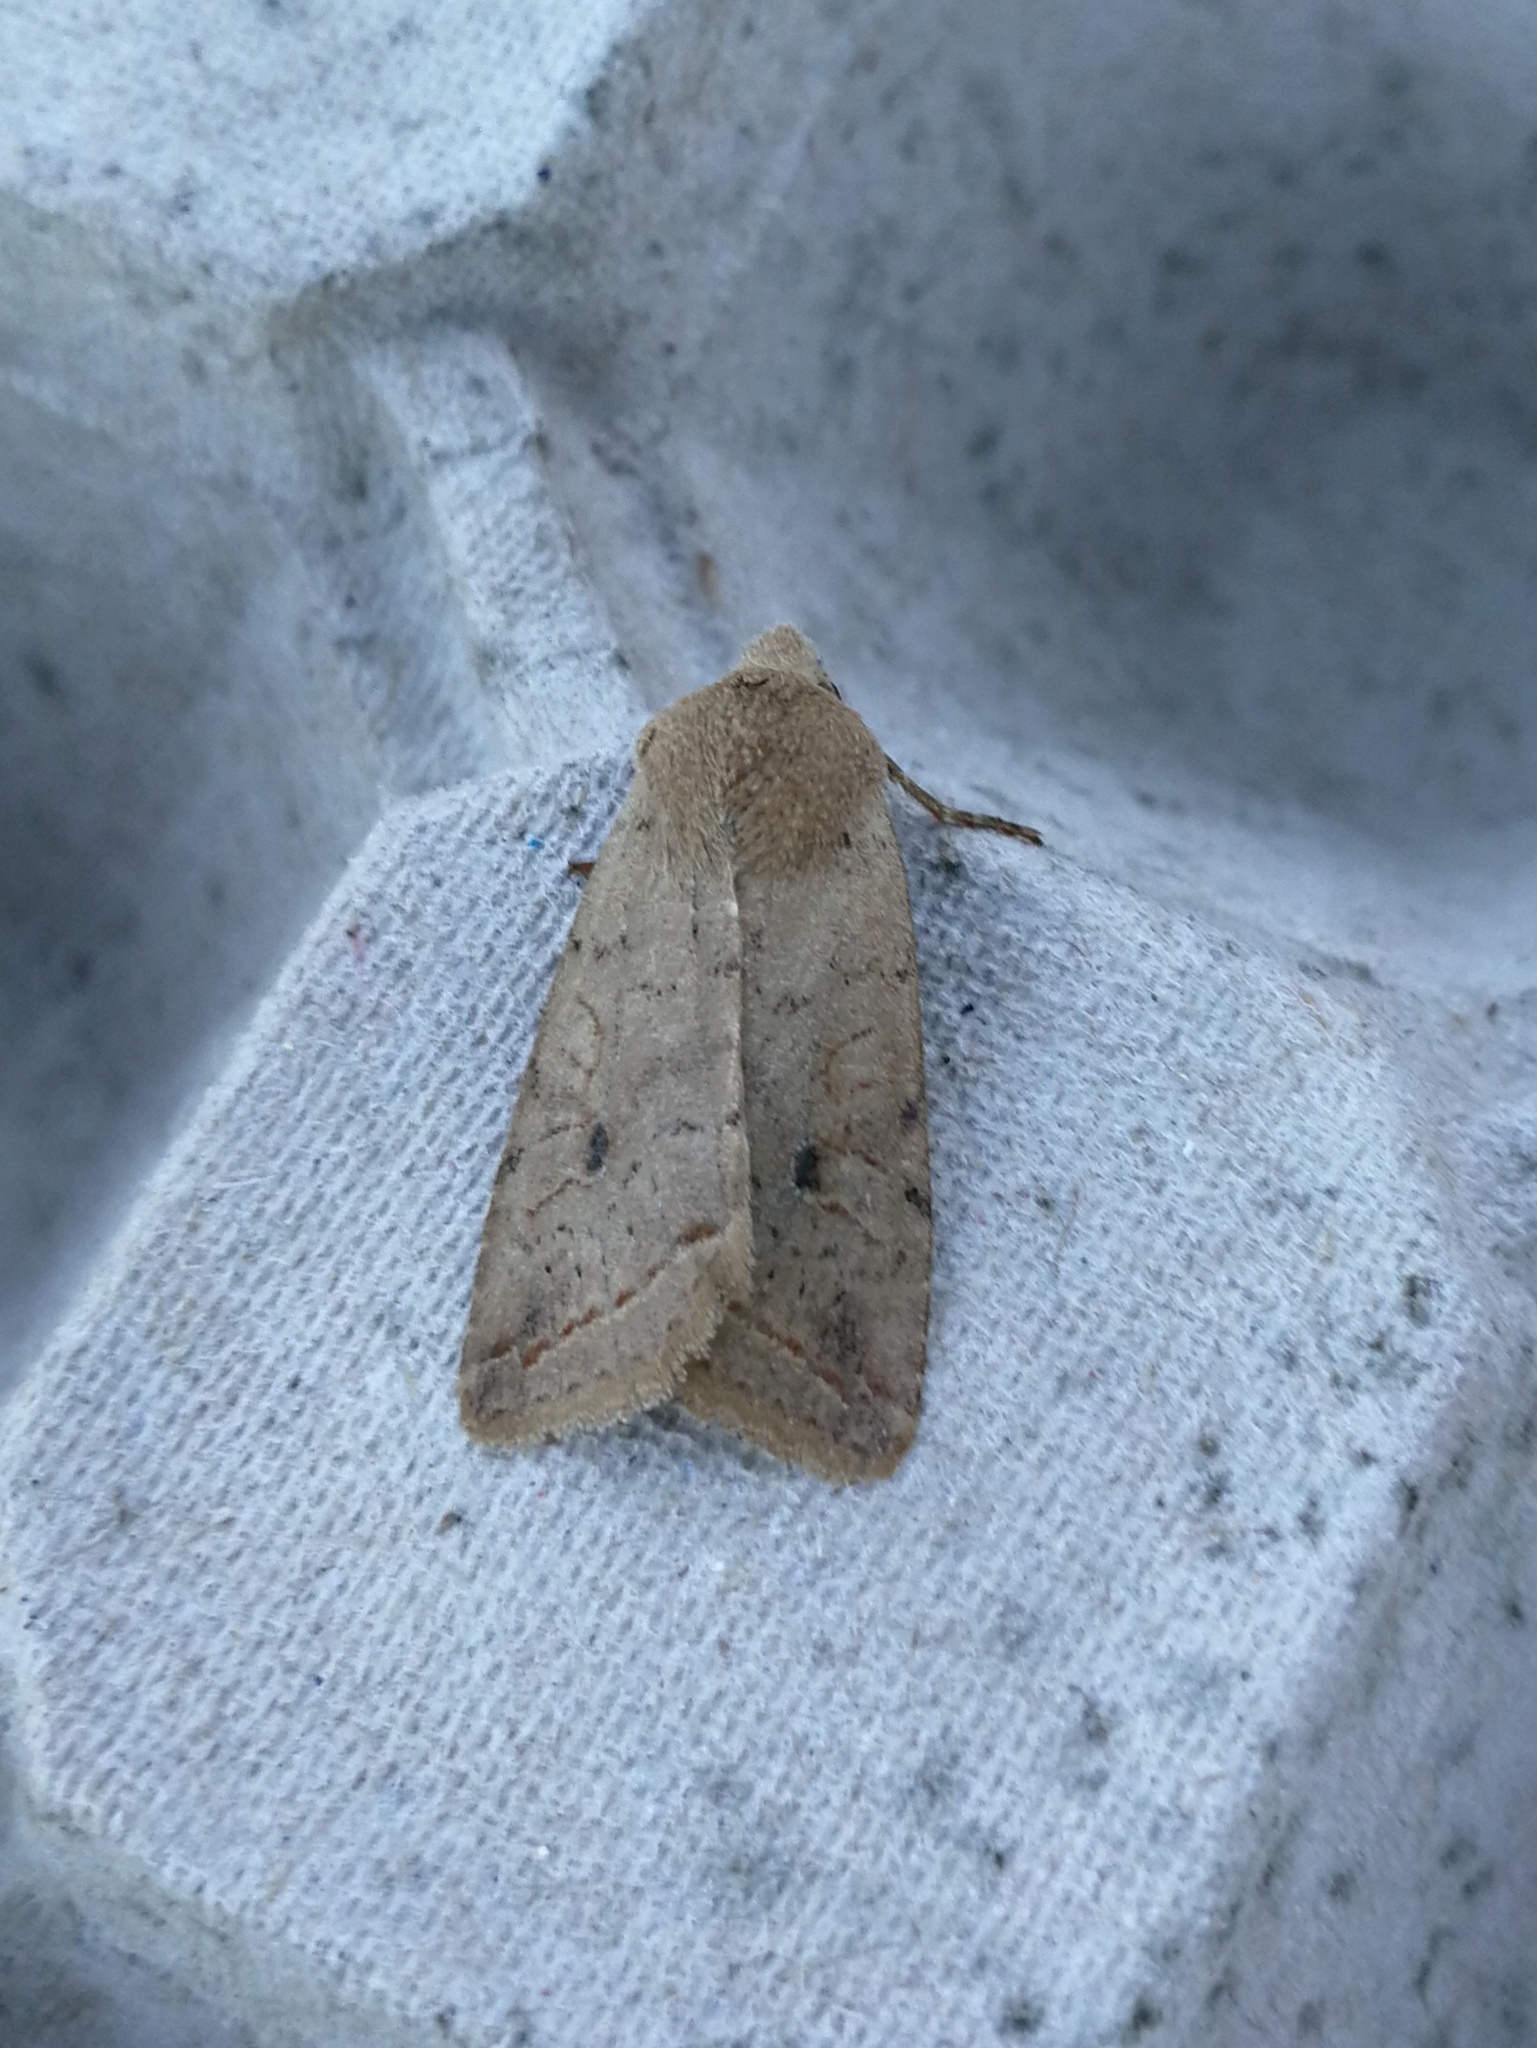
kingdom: Animalia
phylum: Arthropoda
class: Insecta
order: Lepidoptera
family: Noctuidae
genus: Agrochola
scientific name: Agrochola blidaensis
